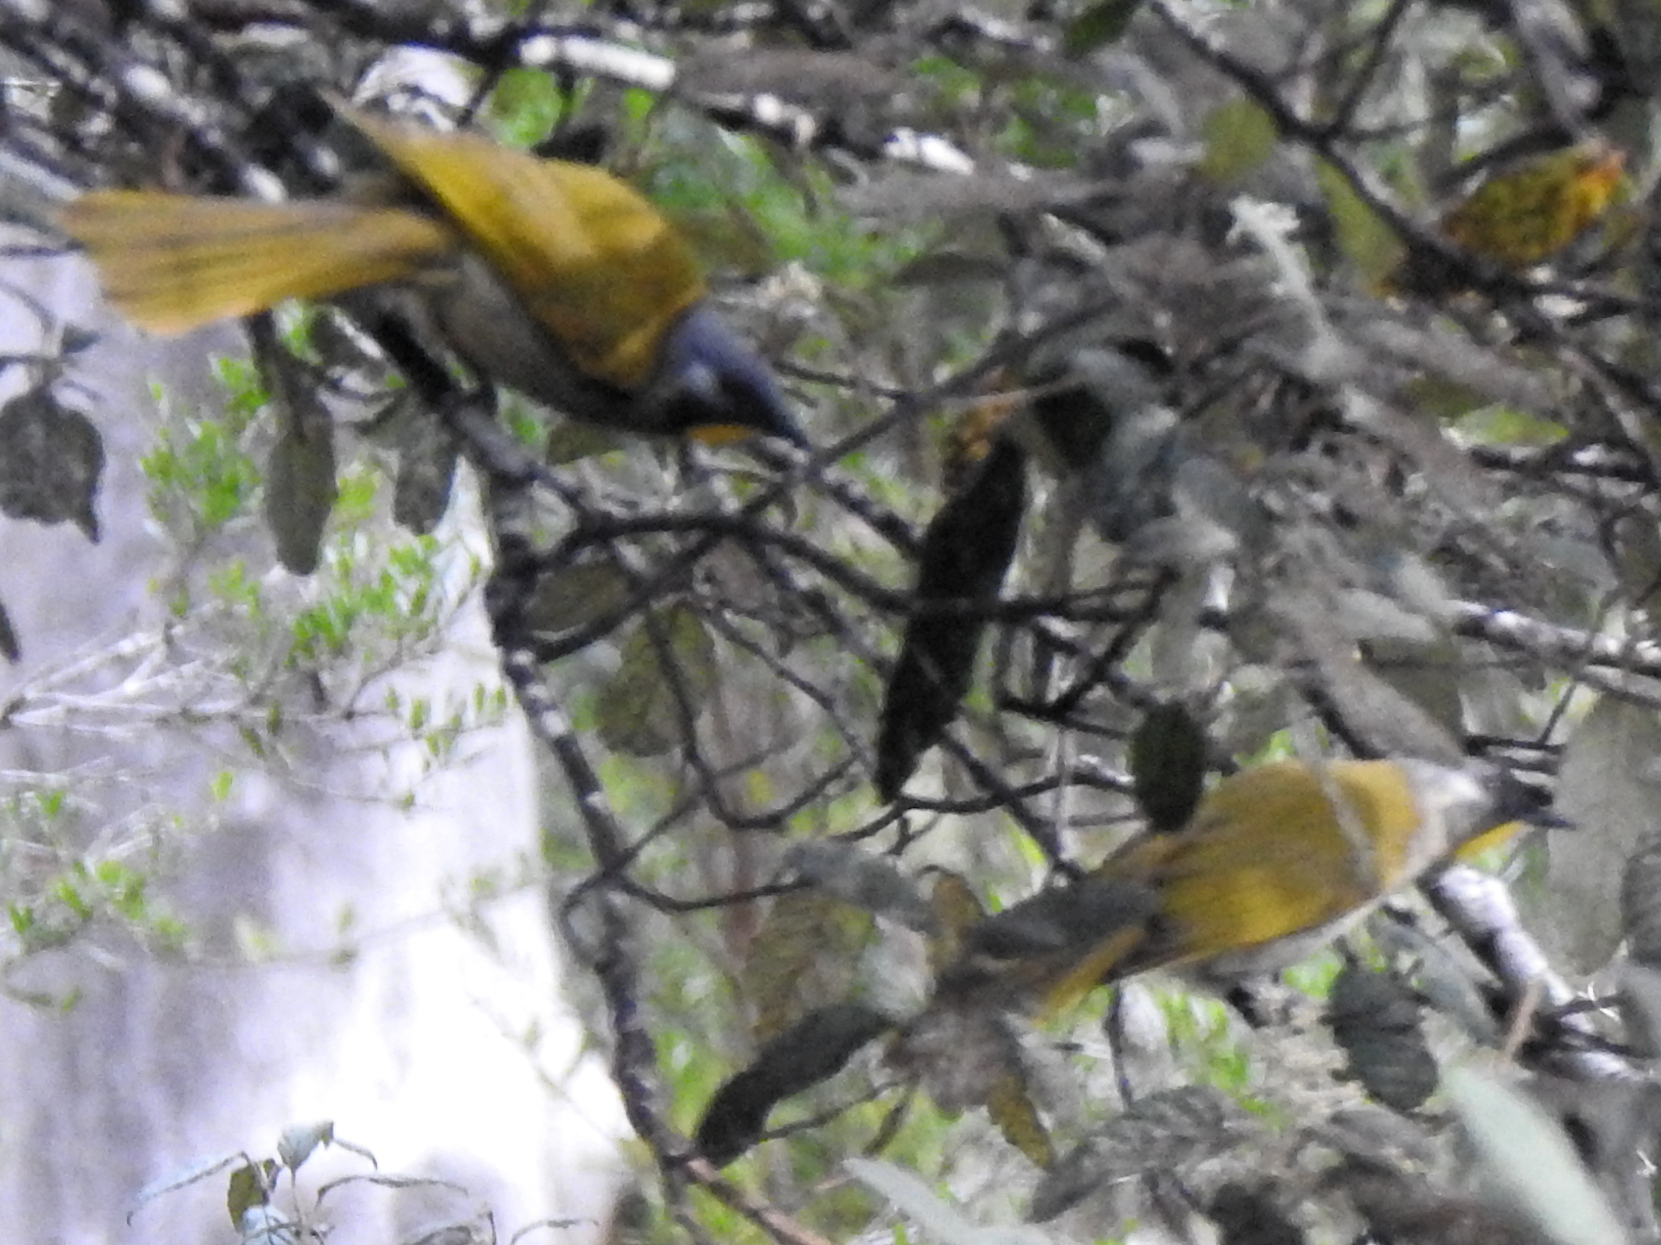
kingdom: Animalia
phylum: Chordata
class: Aves
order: Passeriformes
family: Meliphagidae
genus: Nesoptilotis
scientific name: Nesoptilotis flavicollis
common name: Yellow-throated honeyeater
